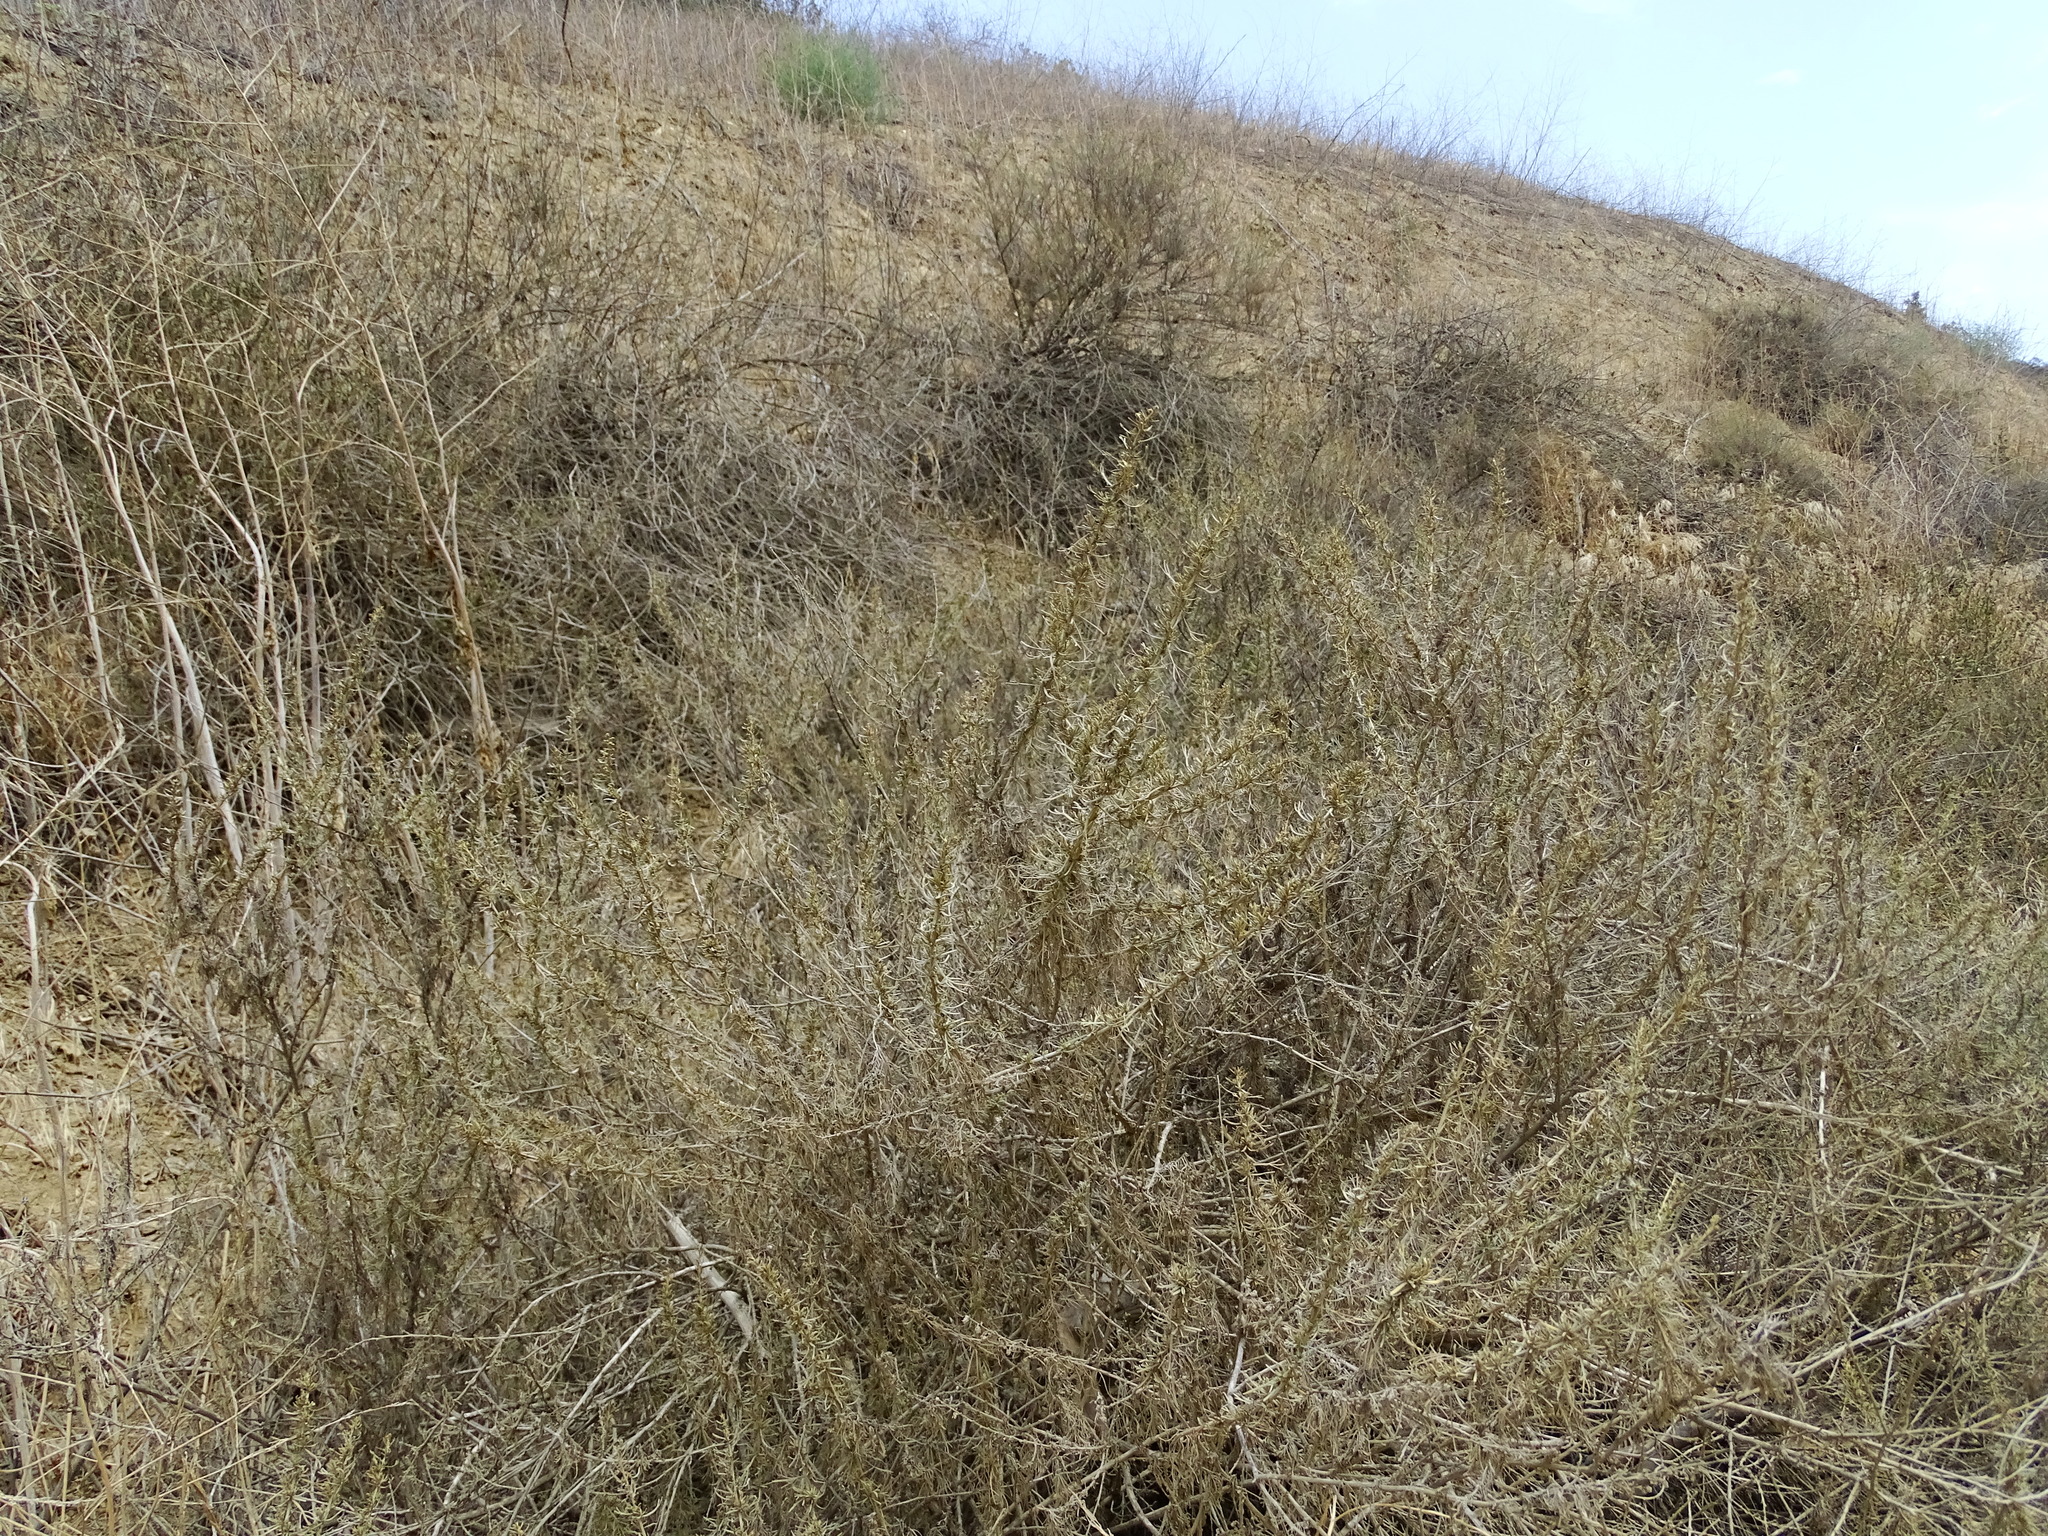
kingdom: Plantae
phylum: Tracheophyta
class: Magnoliopsida
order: Asterales
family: Asteraceae
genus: Artemisia
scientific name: Artemisia californica
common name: California sagebrush
